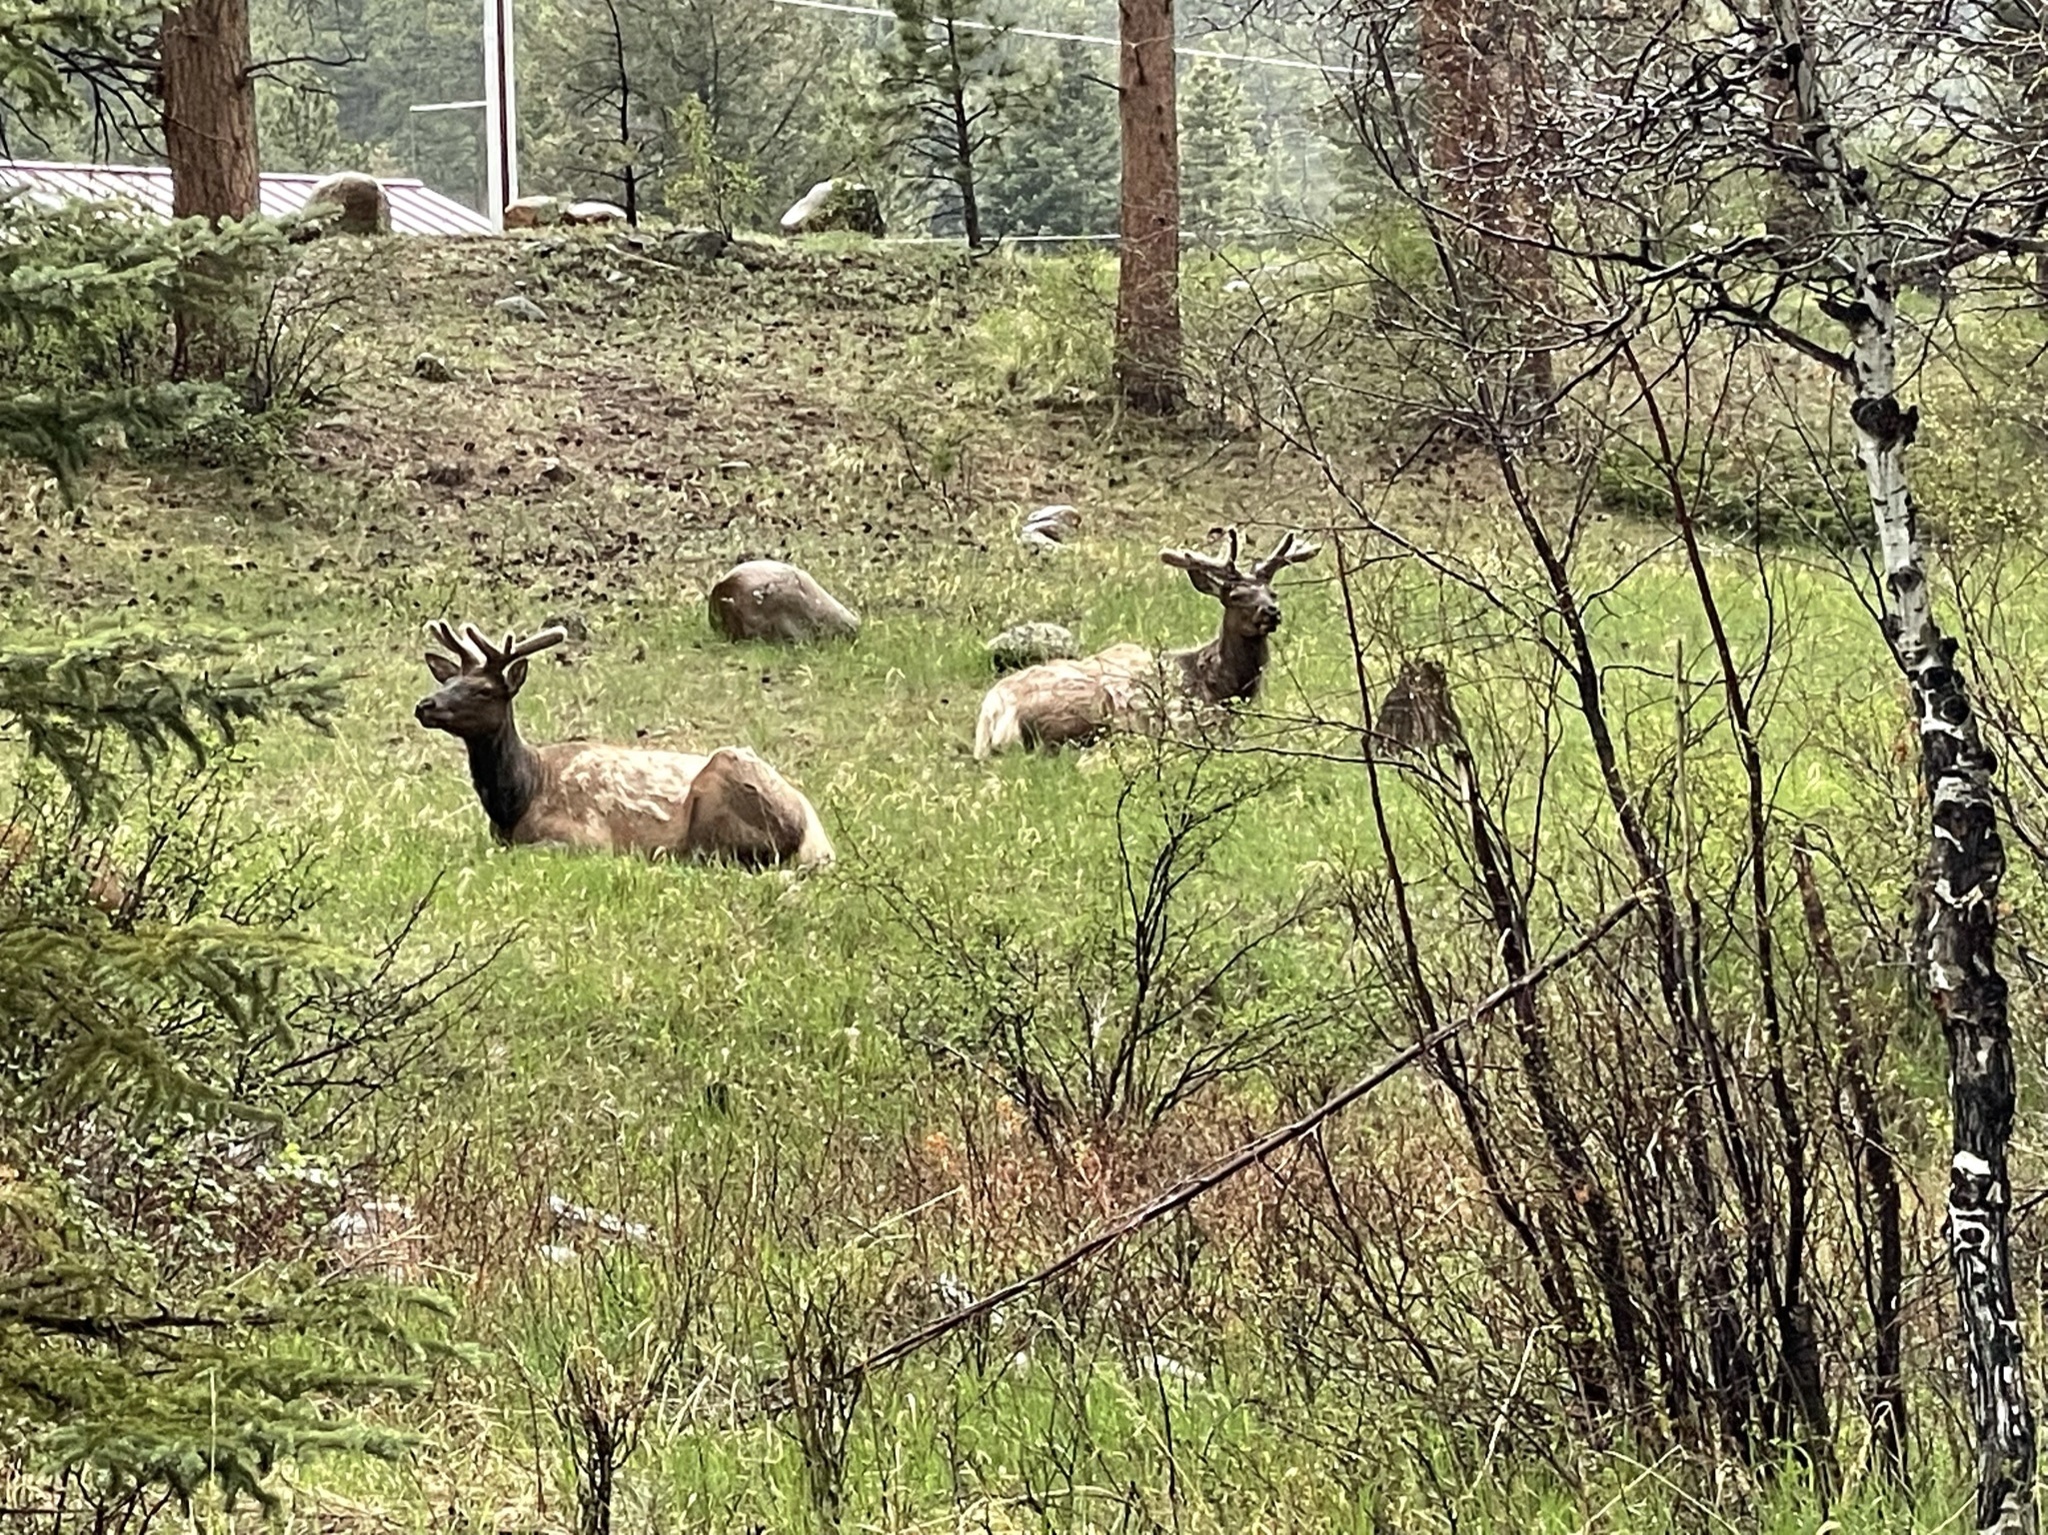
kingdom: Animalia
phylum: Chordata
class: Mammalia
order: Artiodactyla
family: Cervidae
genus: Cervus
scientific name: Cervus elaphus
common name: Red deer
